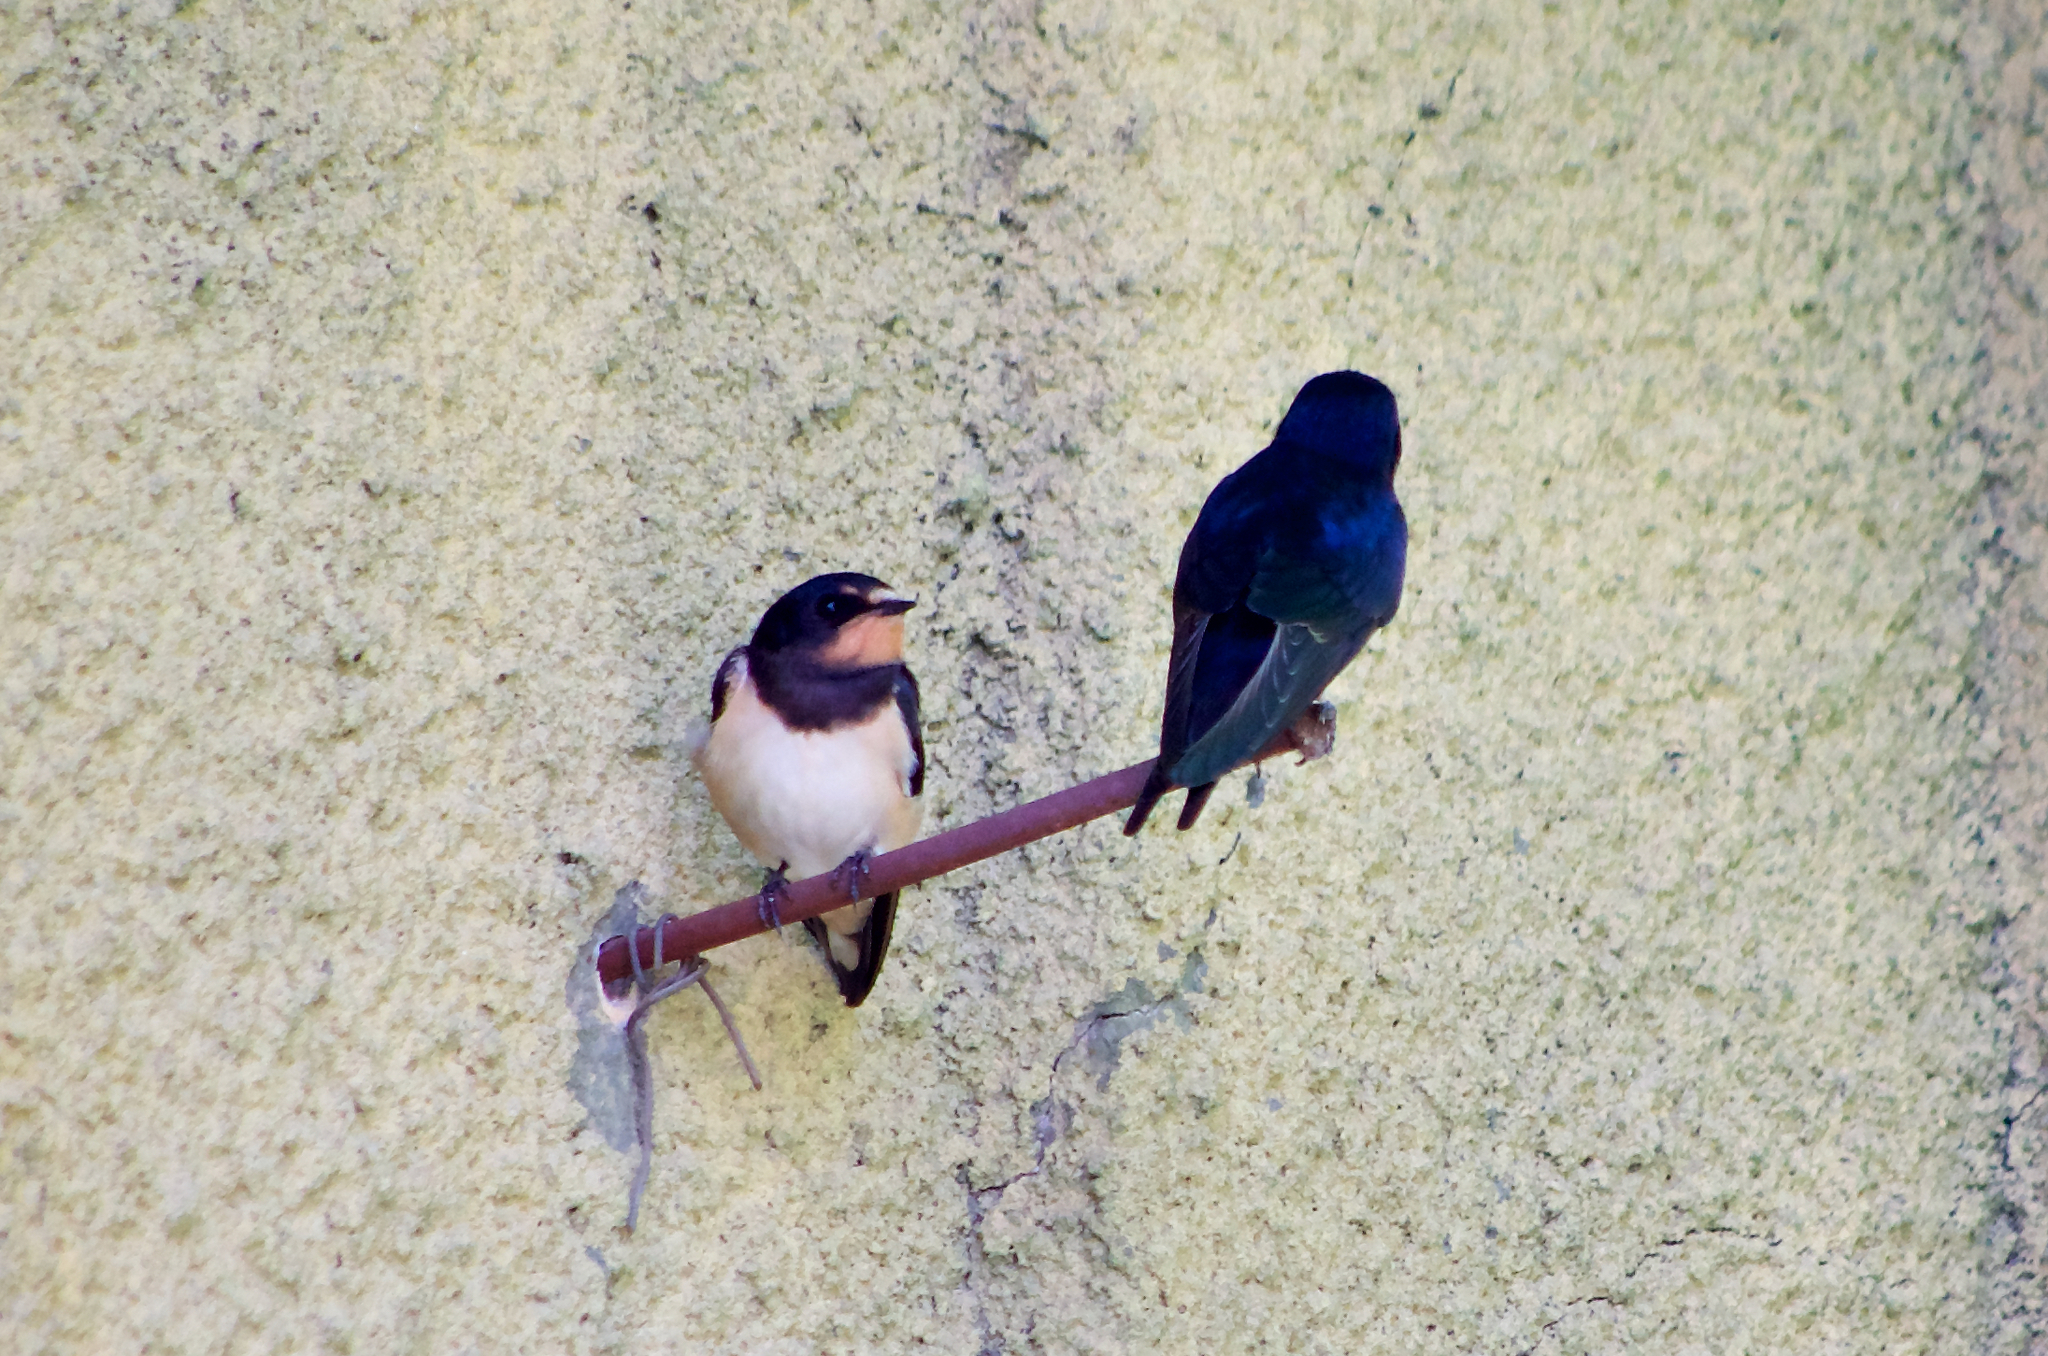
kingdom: Animalia
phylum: Chordata
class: Aves
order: Passeriformes
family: Hirundinidae
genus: Hirundo
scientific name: Hirundo rustica
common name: Barn swallow
